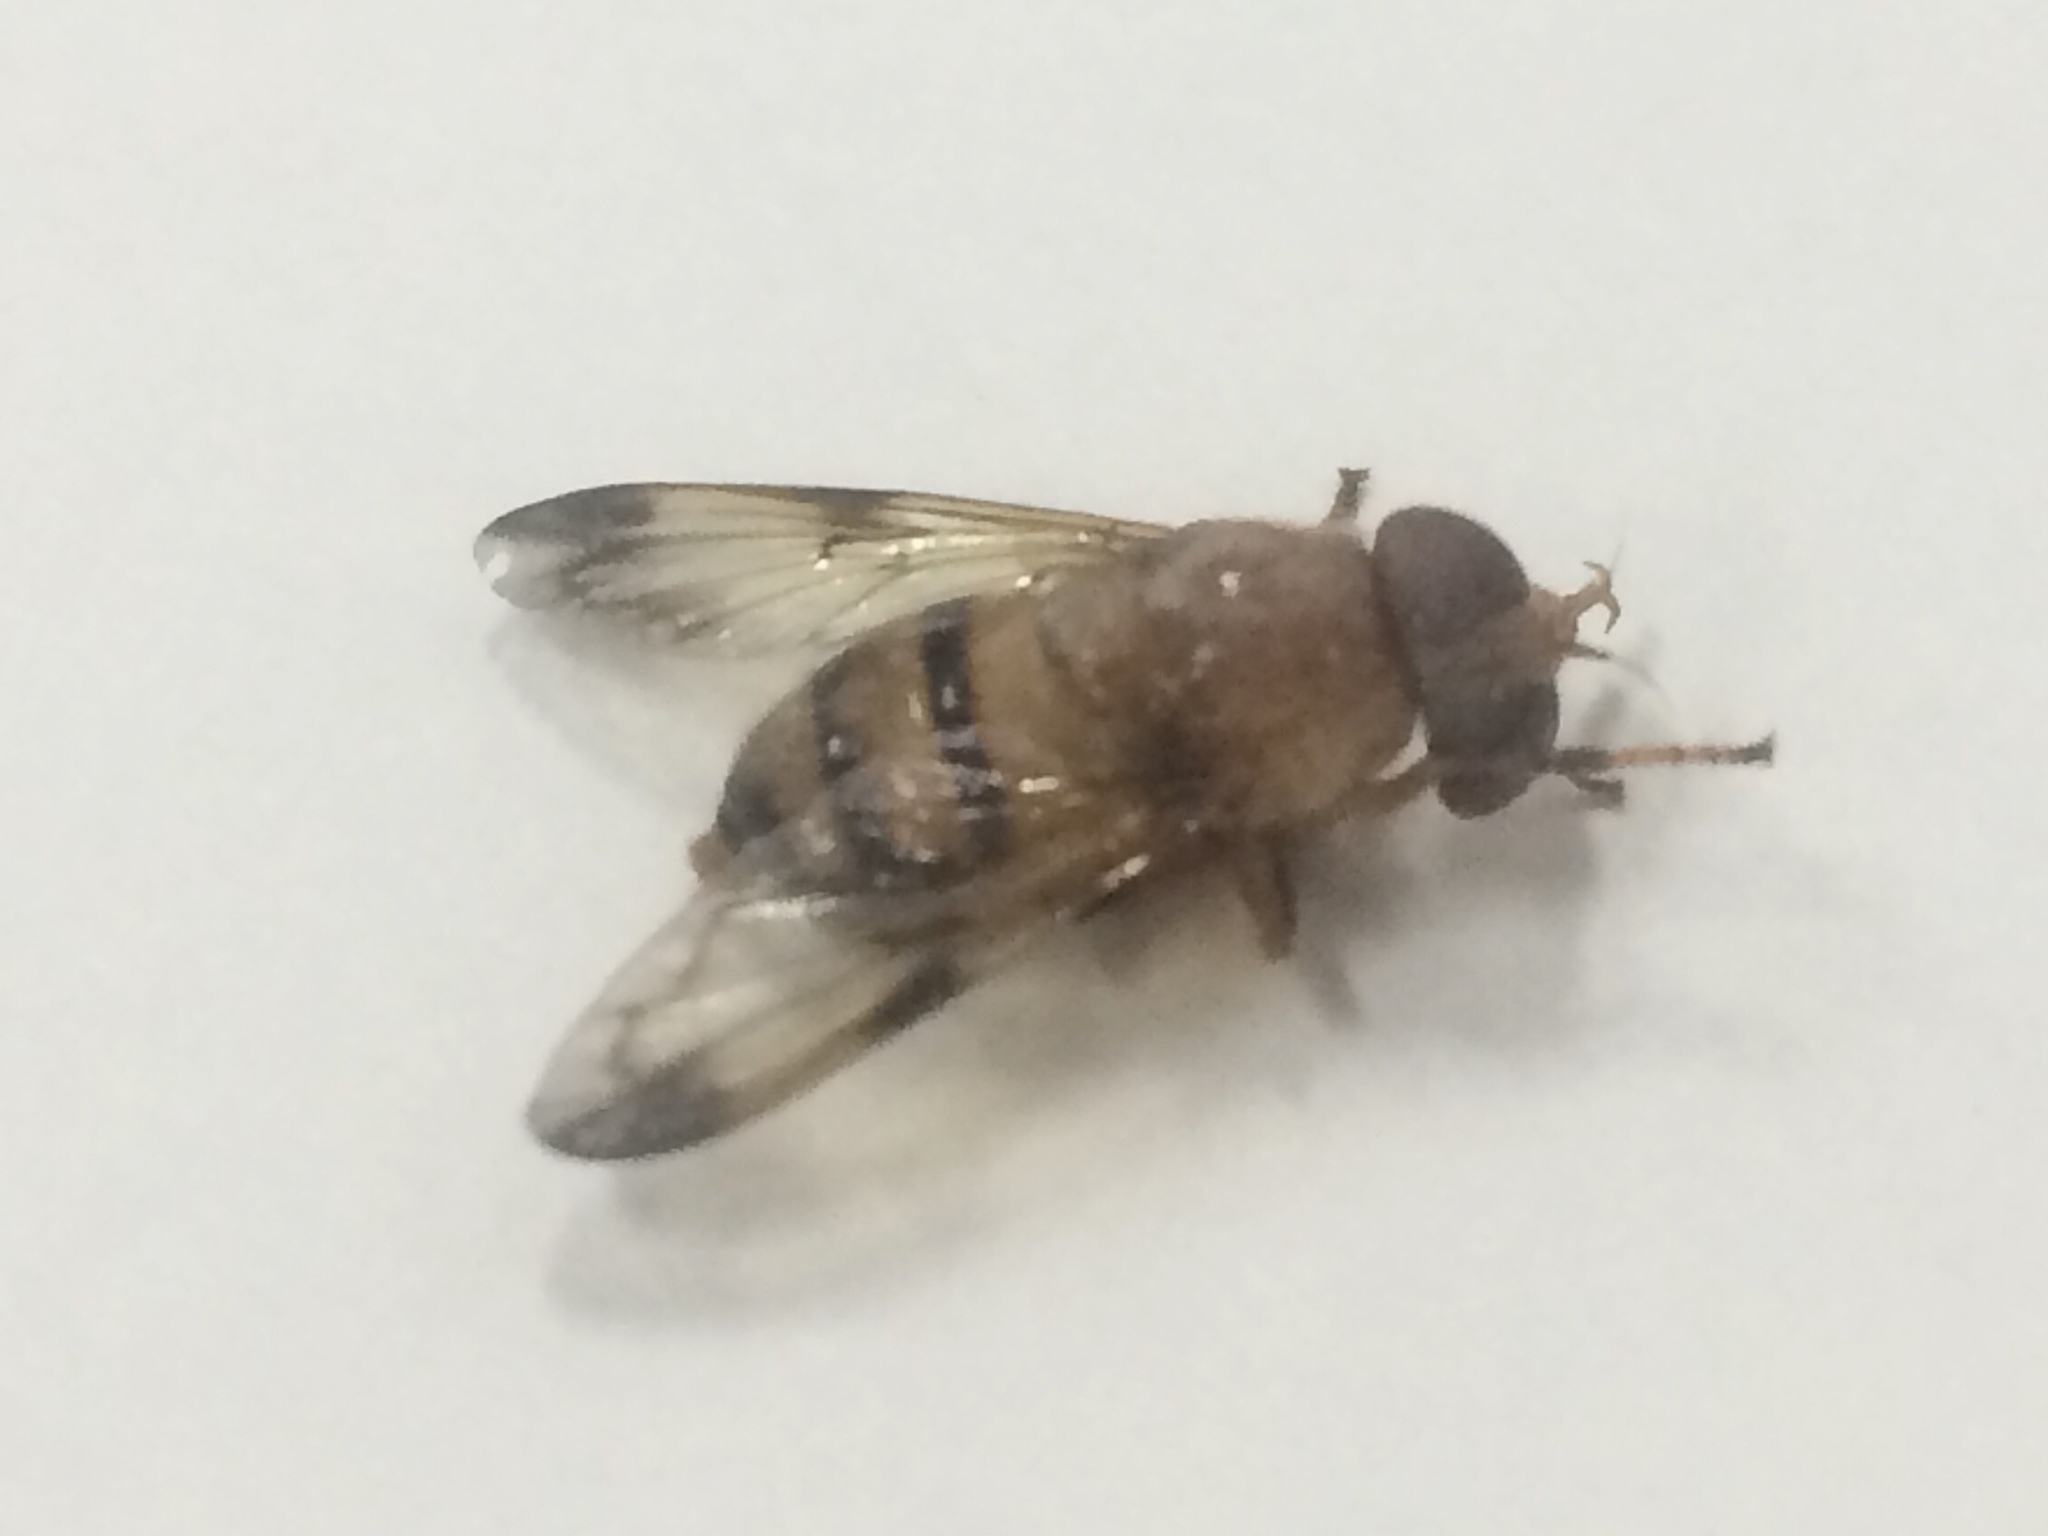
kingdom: Animalia
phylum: Arthropoda
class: Insecta
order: Diptera
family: Syrphidae
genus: Copestylum
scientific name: Copestylum tympanitis
